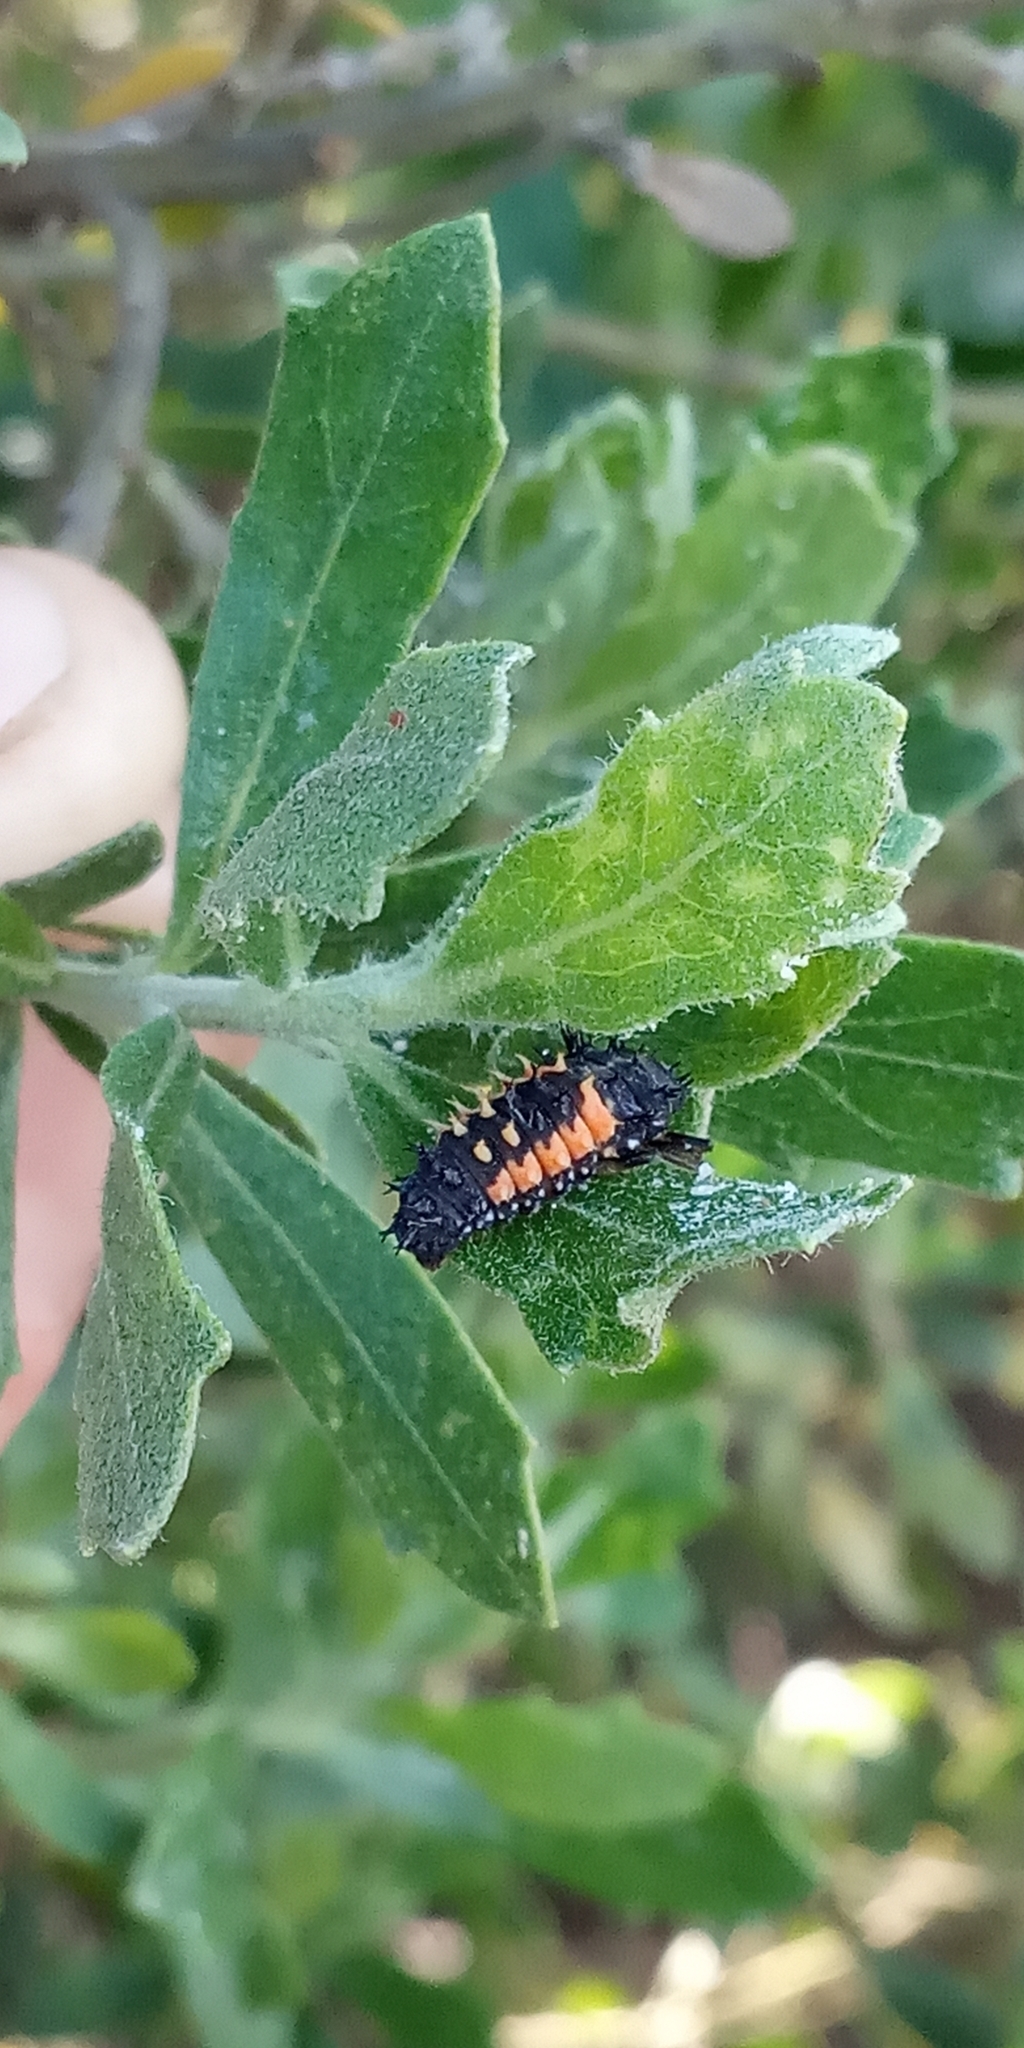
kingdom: Animalia
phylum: Arthropoda
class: Insecta
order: Coleoptera
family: Coccinellidae
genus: Harmonia
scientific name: Harmonia axyridis
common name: Harlequin ladybird
